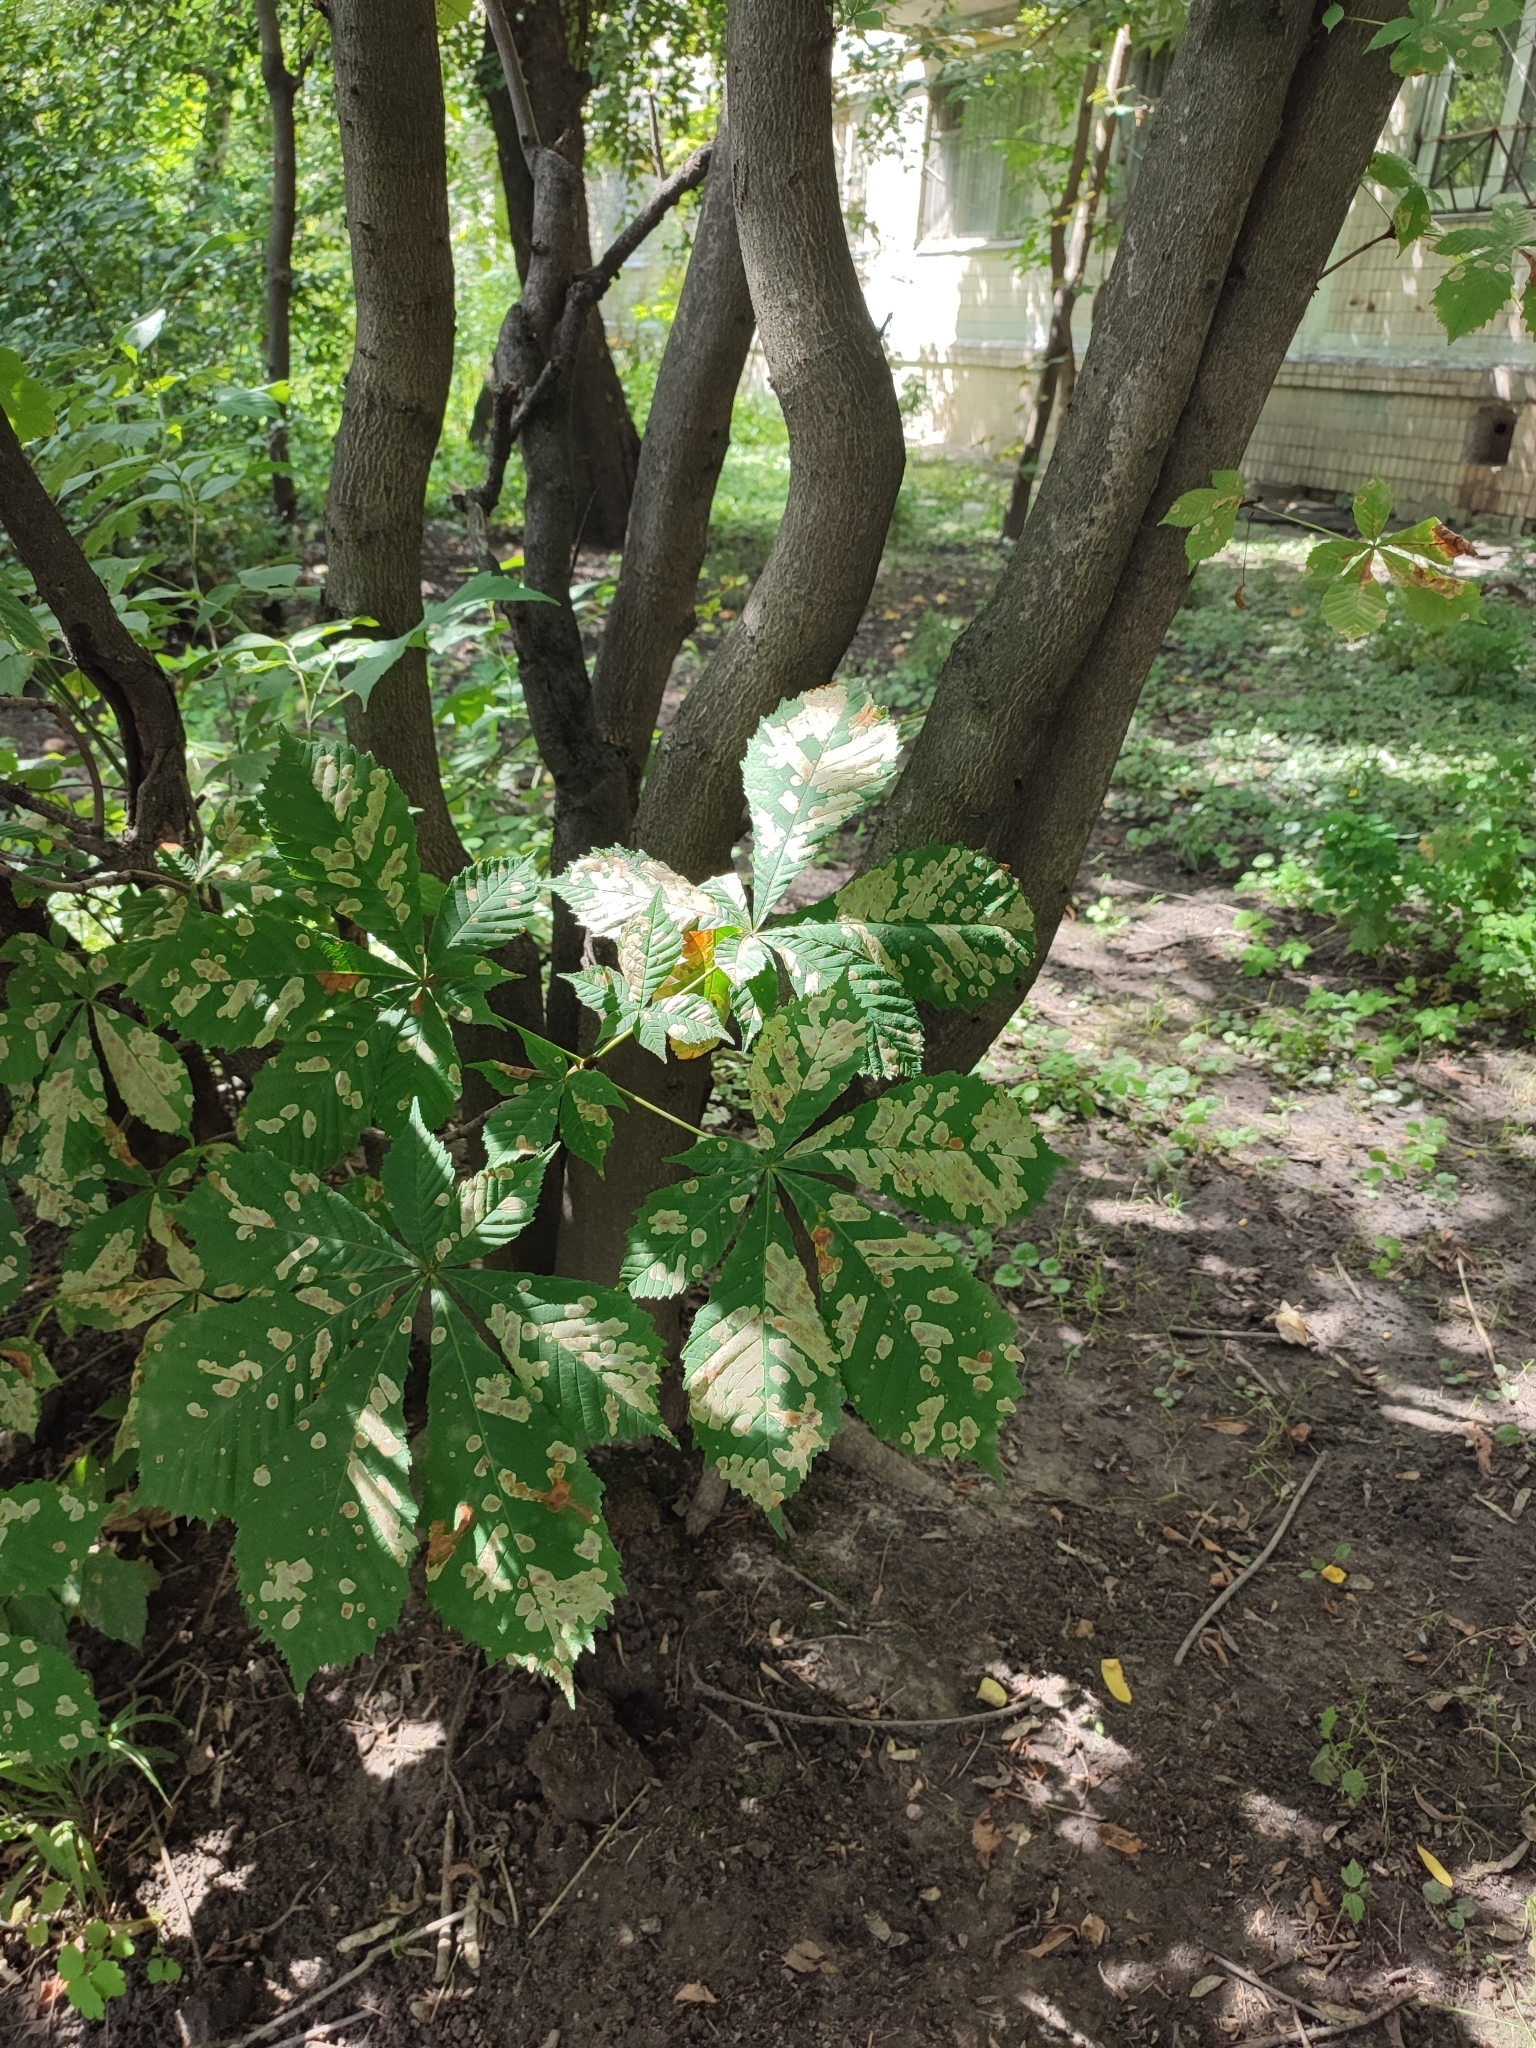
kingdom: Animalia
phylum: Arthropoda
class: Insecta
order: Lepidoptera
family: Gracillariidae
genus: Cameraria
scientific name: Cameraria ohridella
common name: Horse-chestnut leaf-miner
